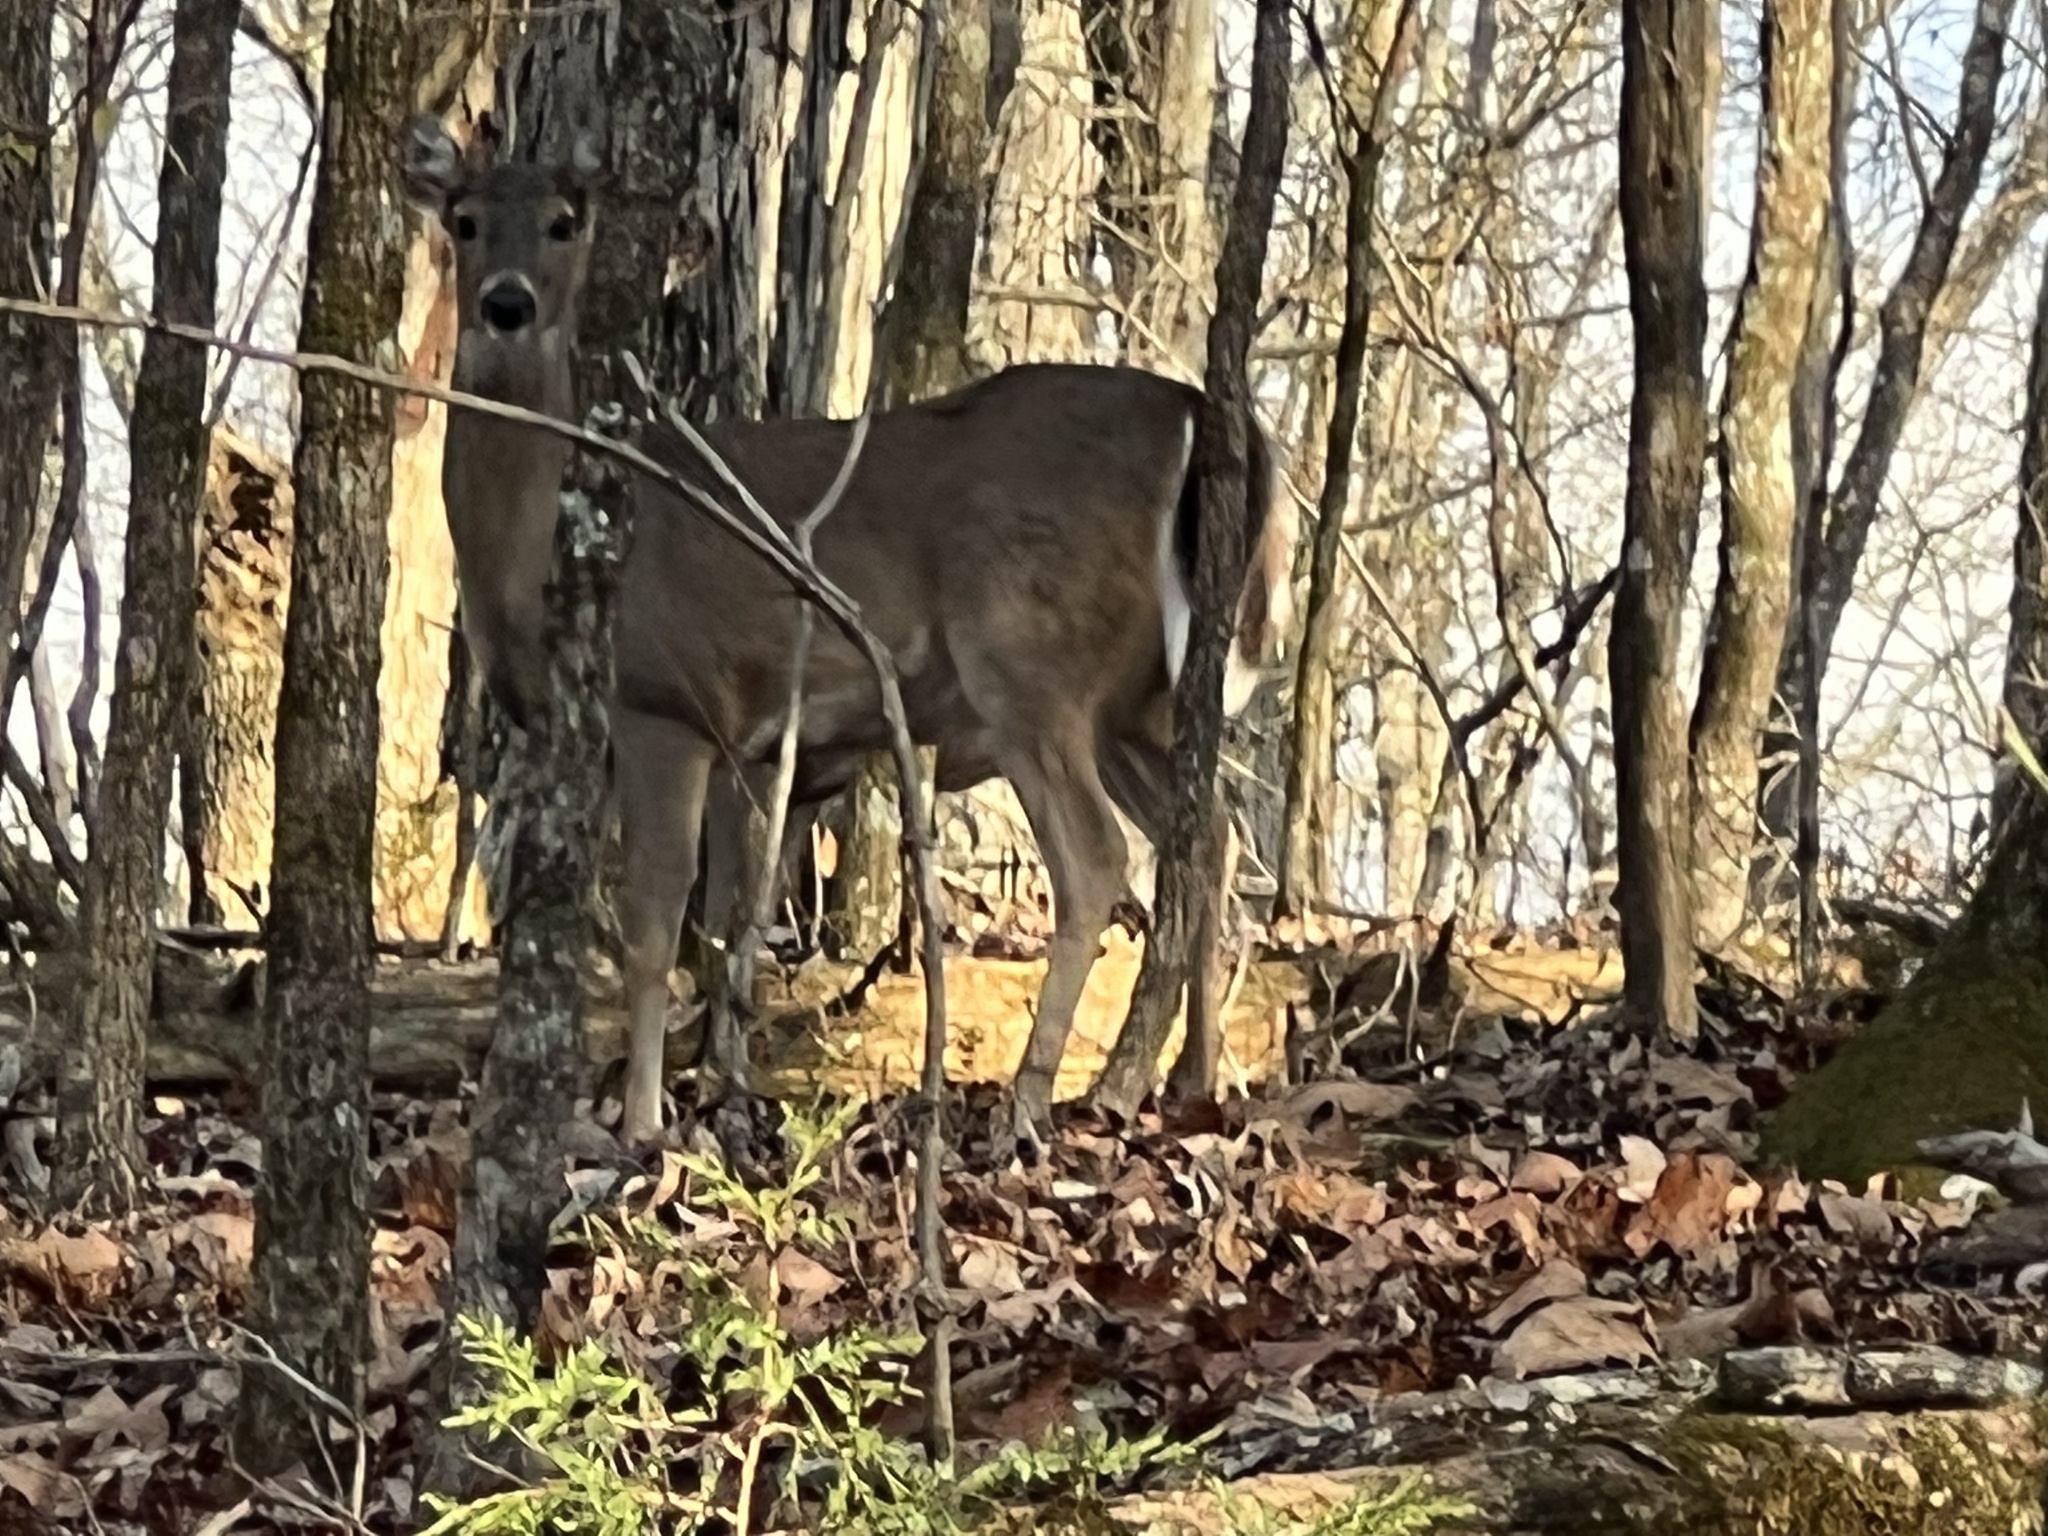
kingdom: Animalia
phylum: Chordata
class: Mammalia
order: Artiodactyla
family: Cervidae
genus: Odocoileus
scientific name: Odocoileus virginianus
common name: White-tailed deer
